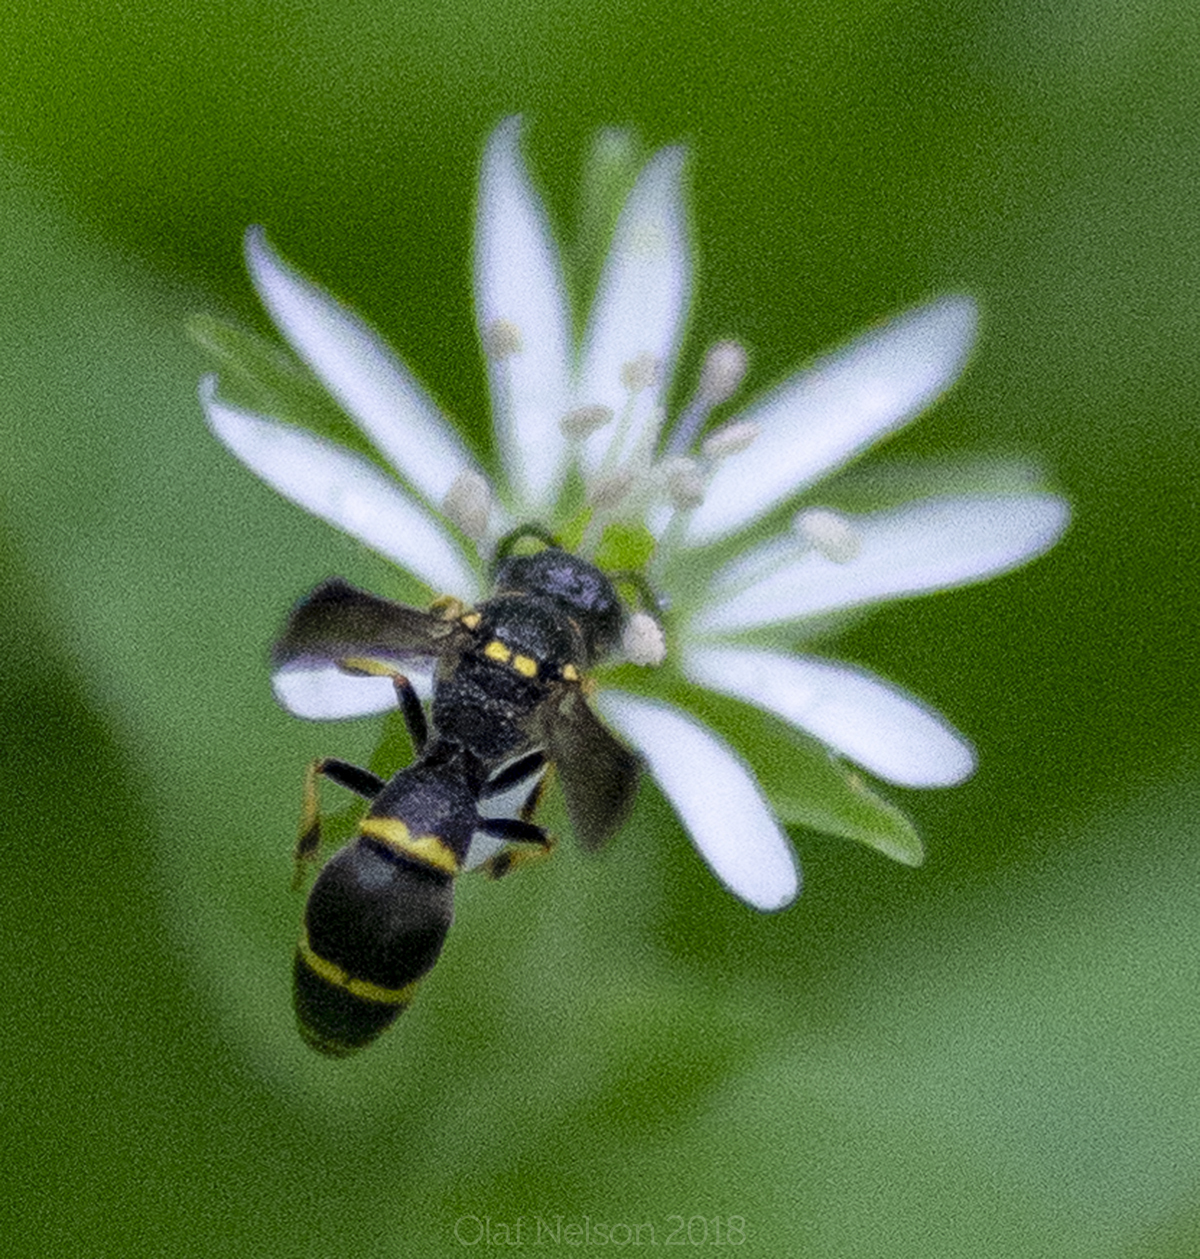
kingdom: Animalia
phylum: Arthropoda
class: Insecta
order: Hymenoptera
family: Eumenidae
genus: Symmorphus
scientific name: Symmorphus
